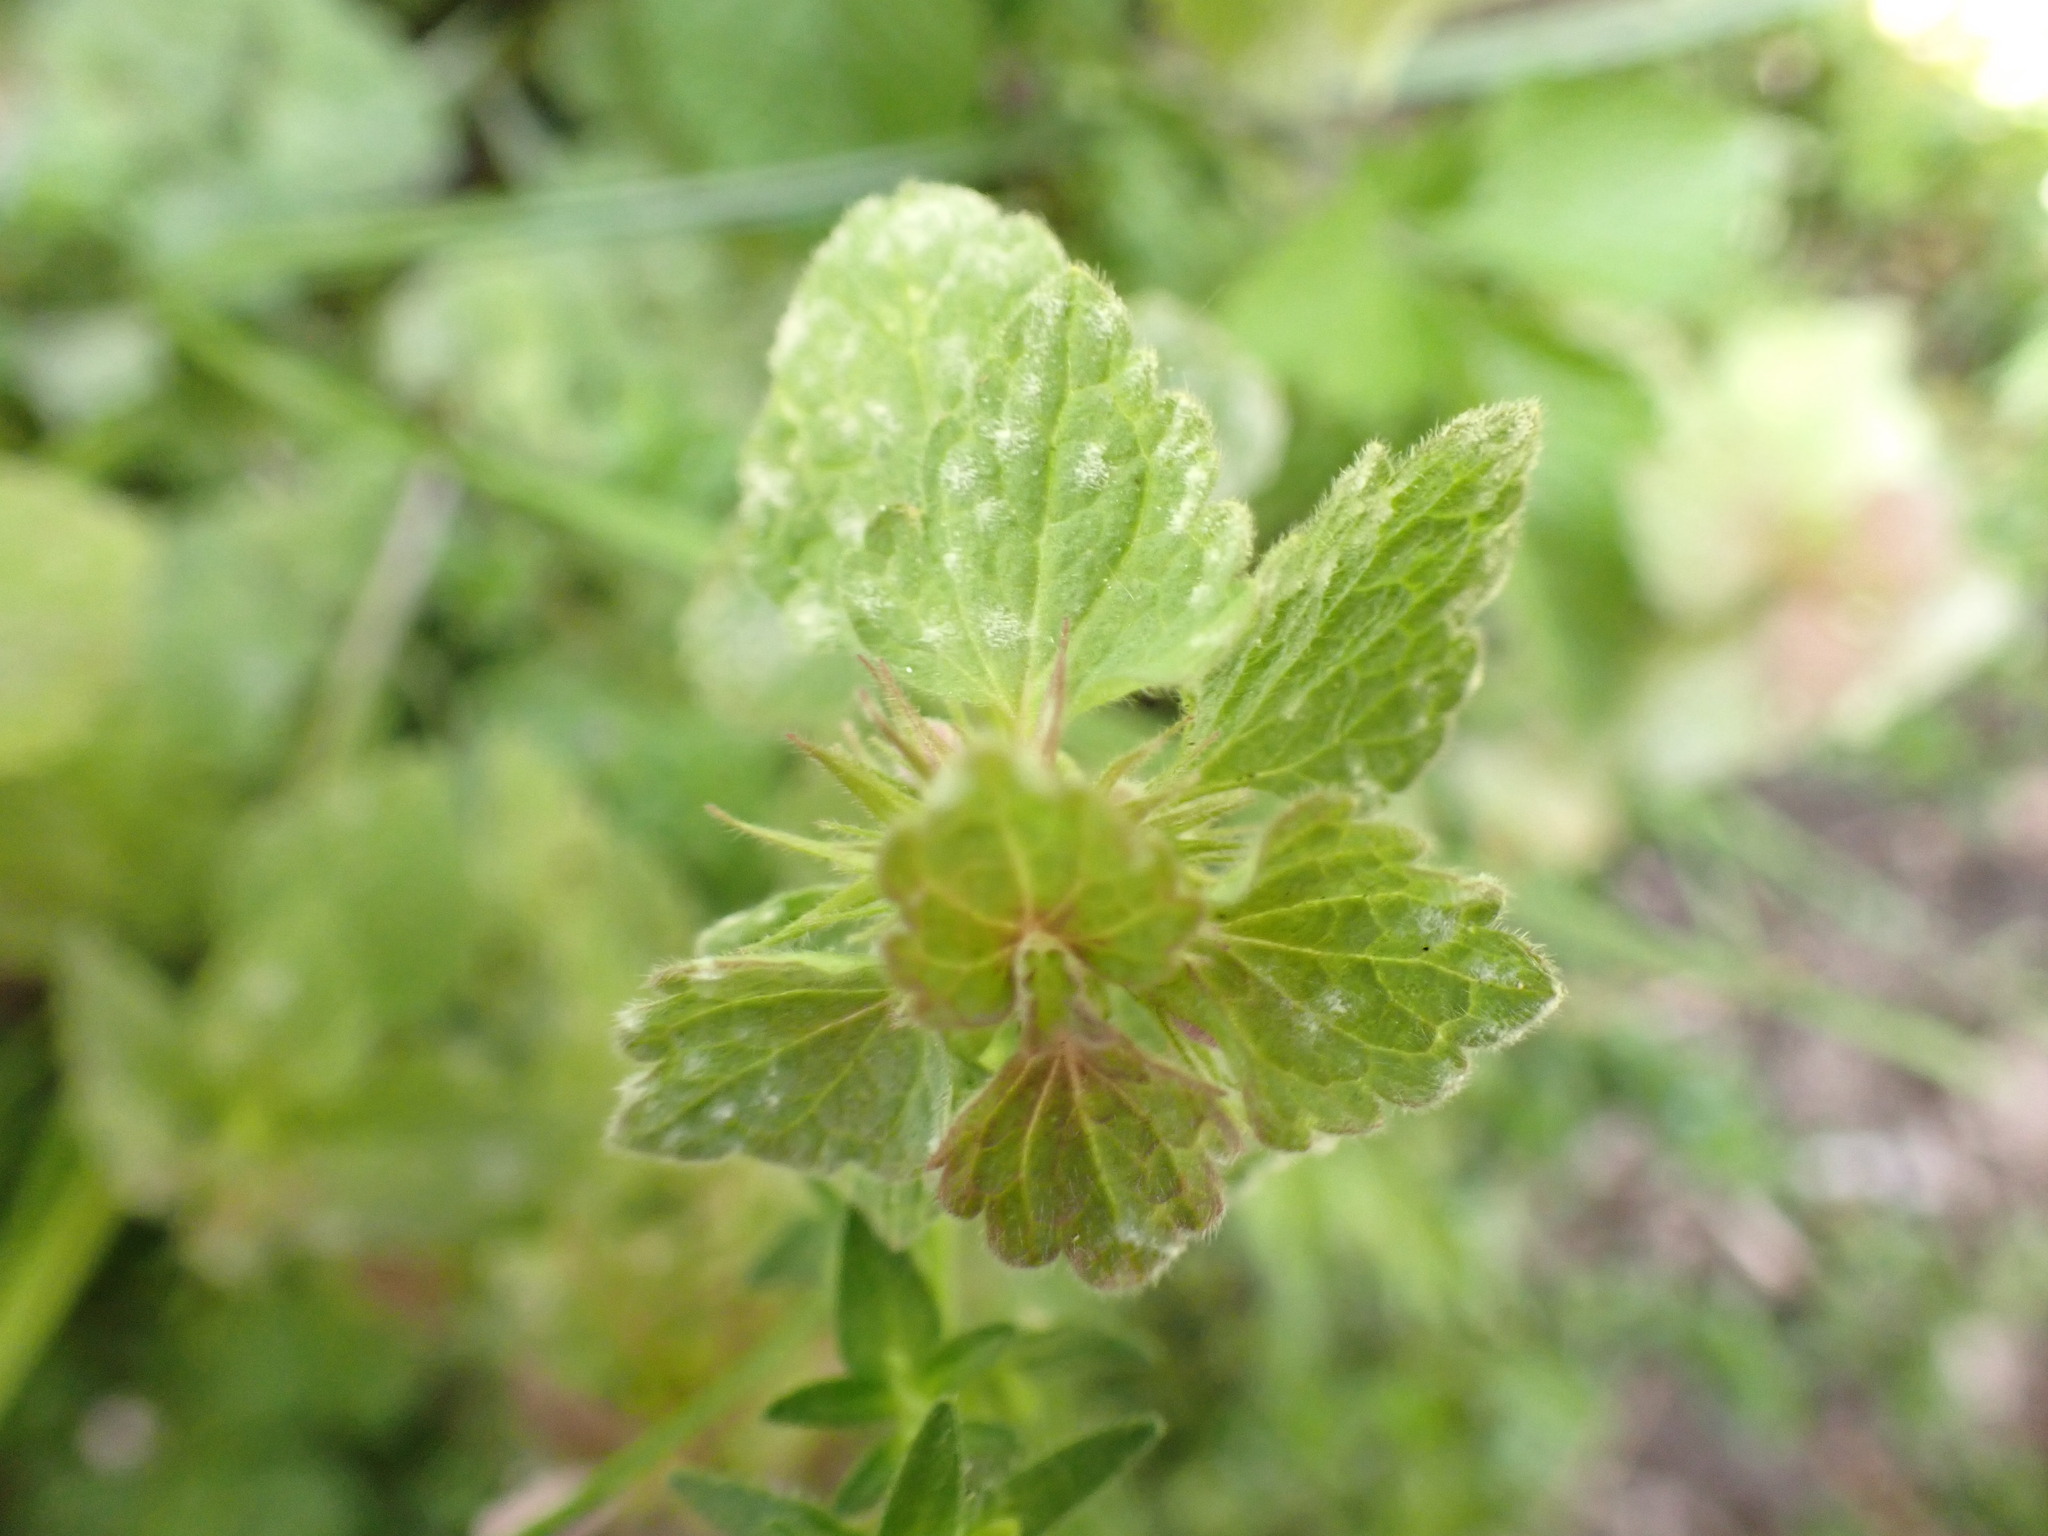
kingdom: Fungi
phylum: Ascomycota
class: Leotiomycetes
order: Helotiales
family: Erysiphaceae
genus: Neoerysiphe
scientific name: Neoerysiphe galeopsidis
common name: Mint mildew
